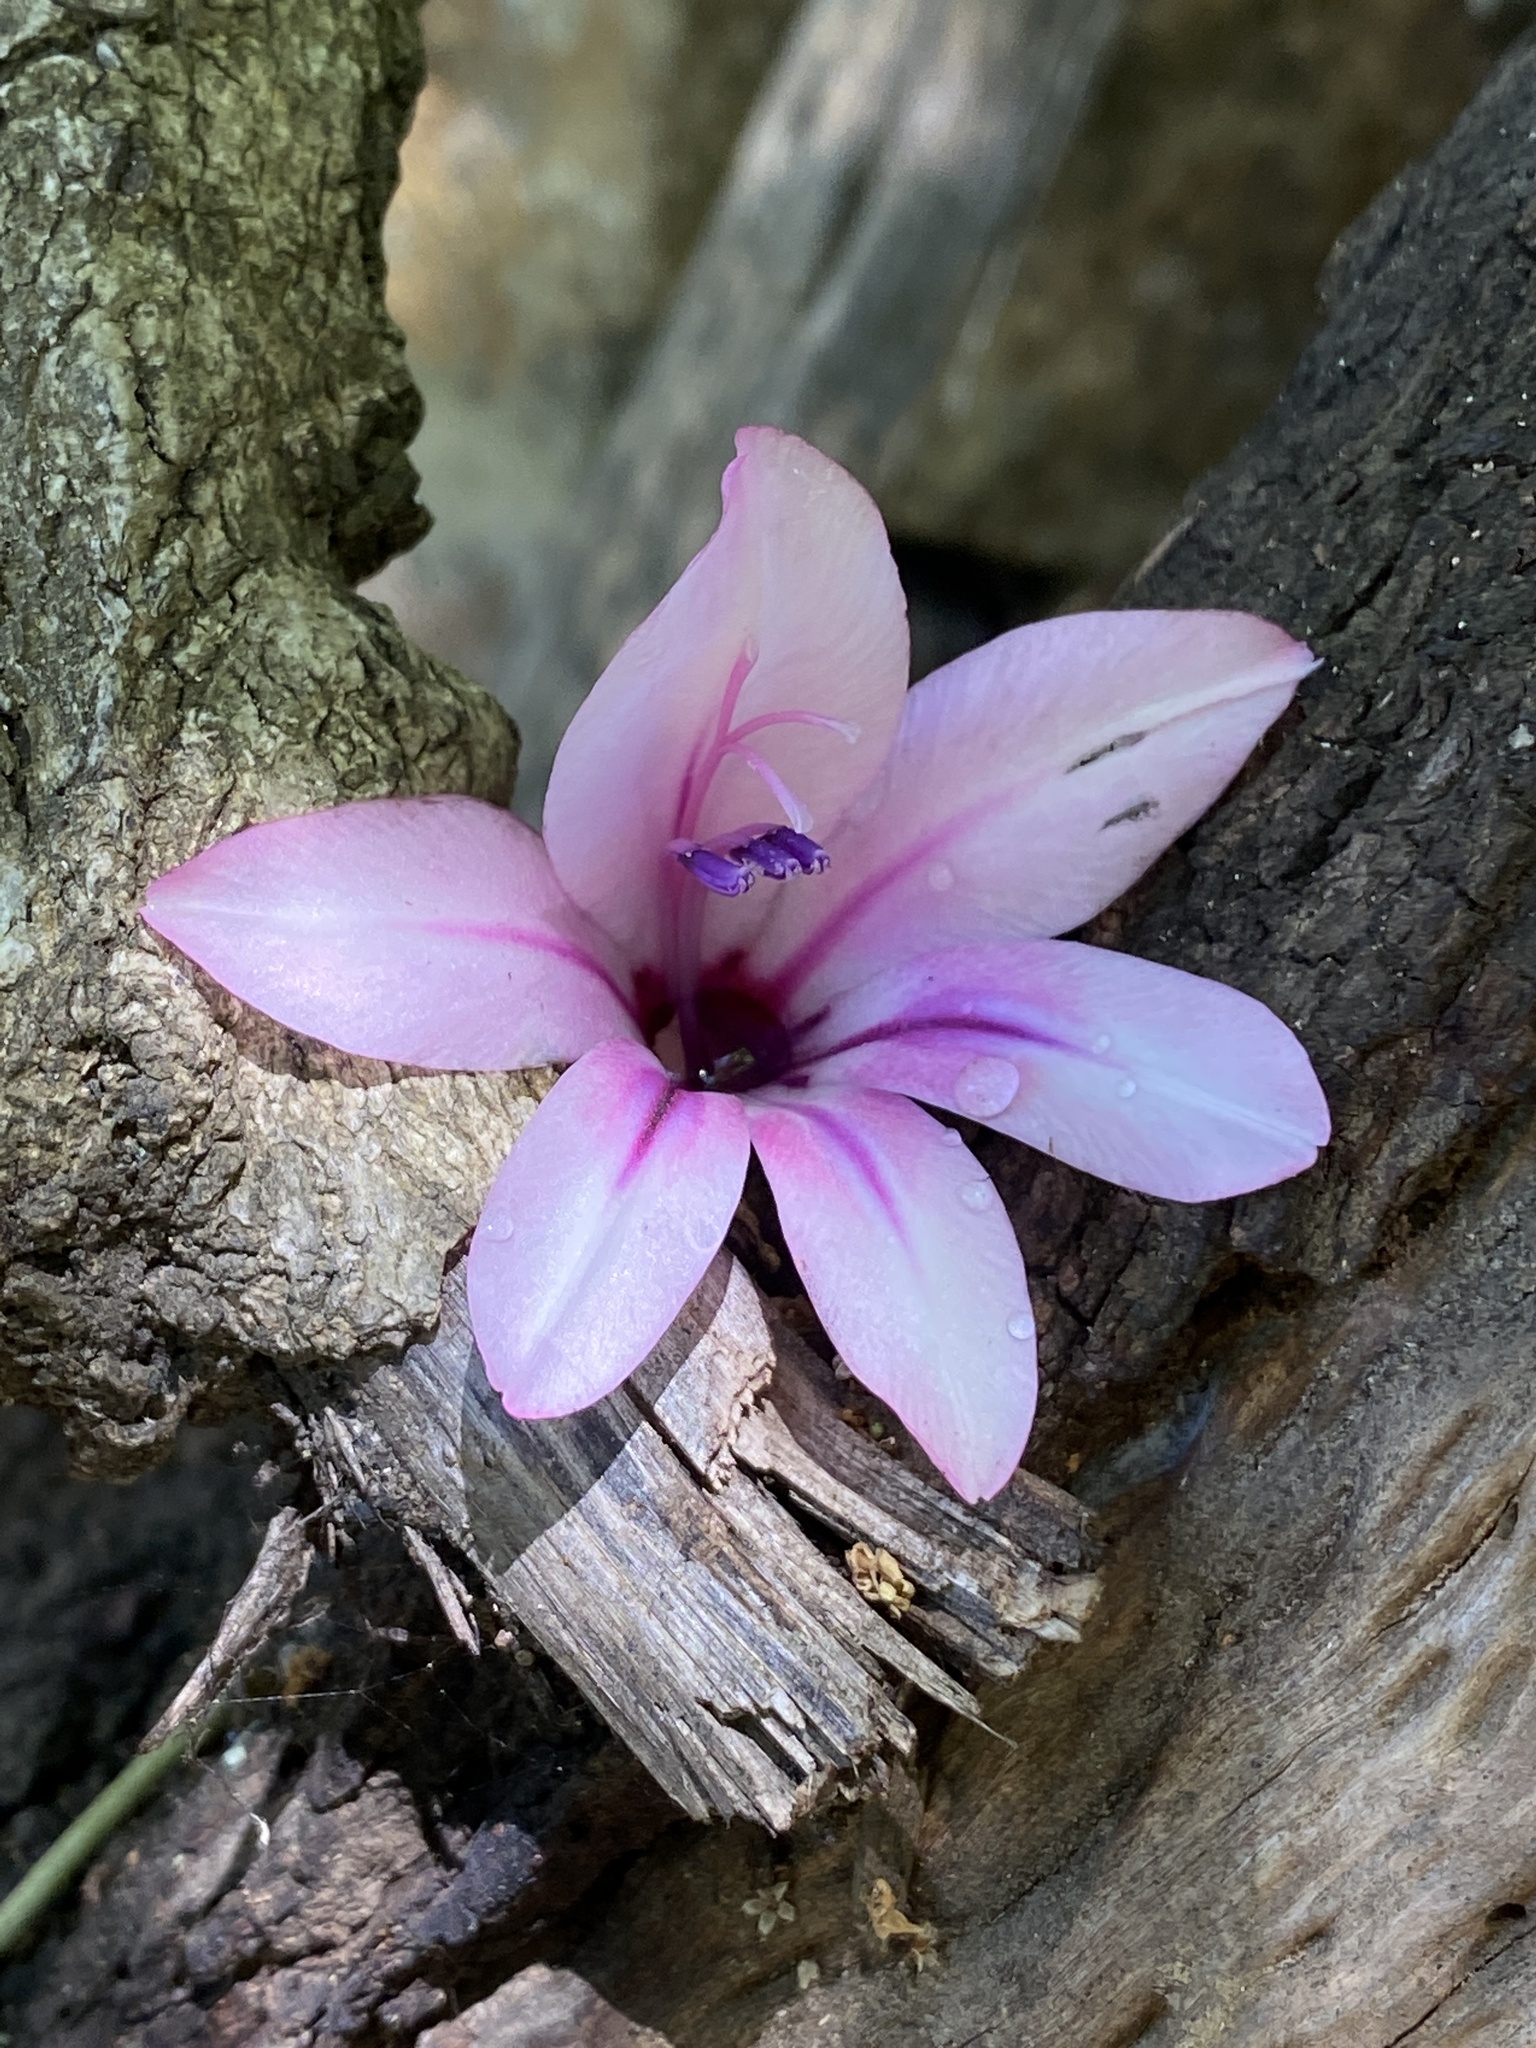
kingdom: Plantae
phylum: Tracheophyta
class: Liliopsida
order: Asparagales
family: Iridaceae
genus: Gladiolus
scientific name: Gladiolus aquamontanus
